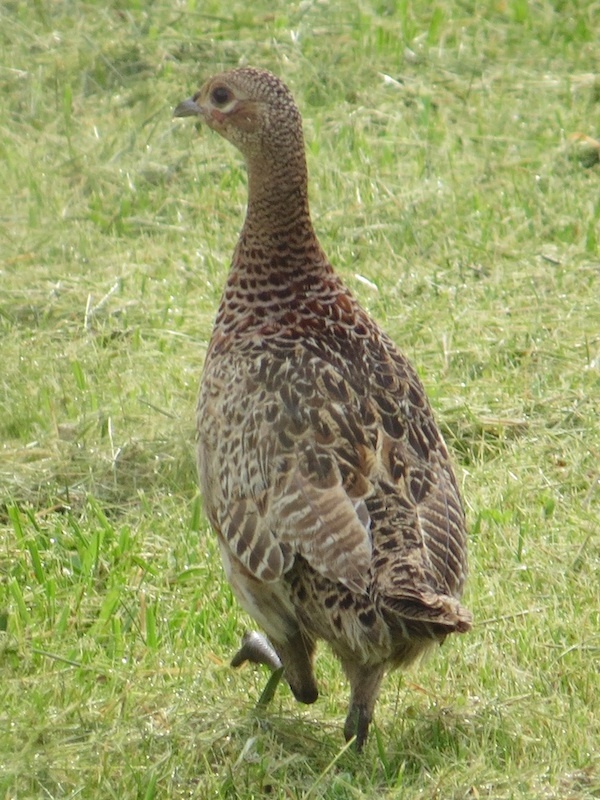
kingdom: Animalia
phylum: Chordata
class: Aves
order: Galliformes
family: Phasianidae
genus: Phasianus
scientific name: Phasianus colchicus
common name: Common pheasant
